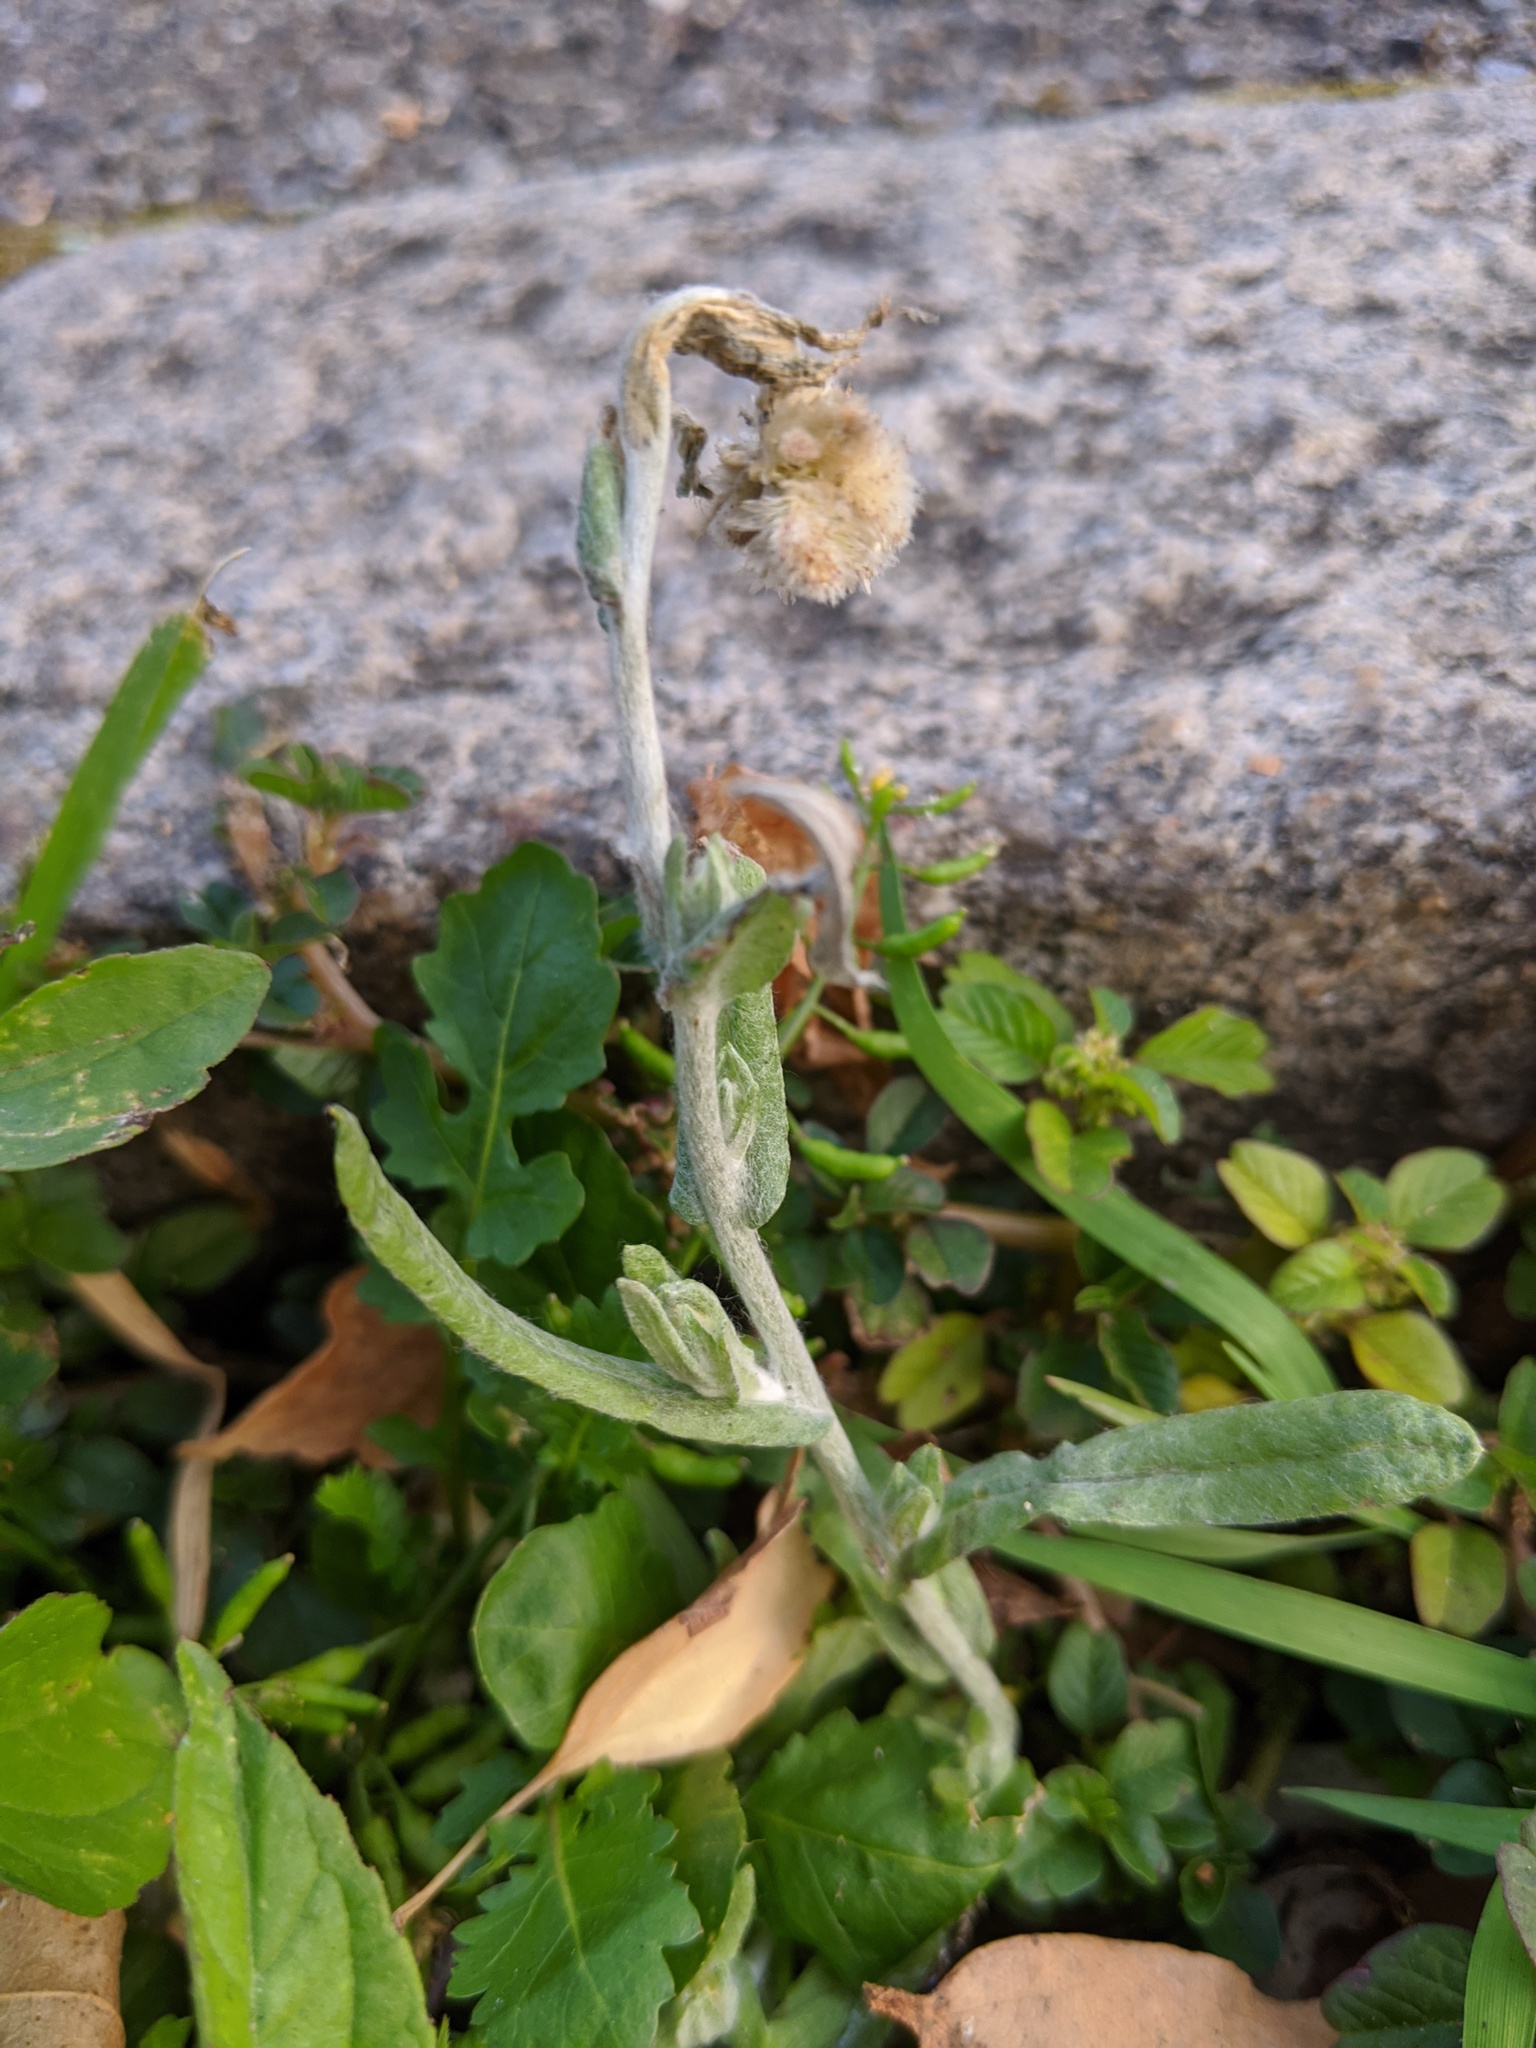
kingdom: Plantae
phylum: Tracheophyta
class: Magnoliopsida
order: Asterales
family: Asteraceae
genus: Helichrysum
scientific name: Helichrysum luteoalbum
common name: Daisy
